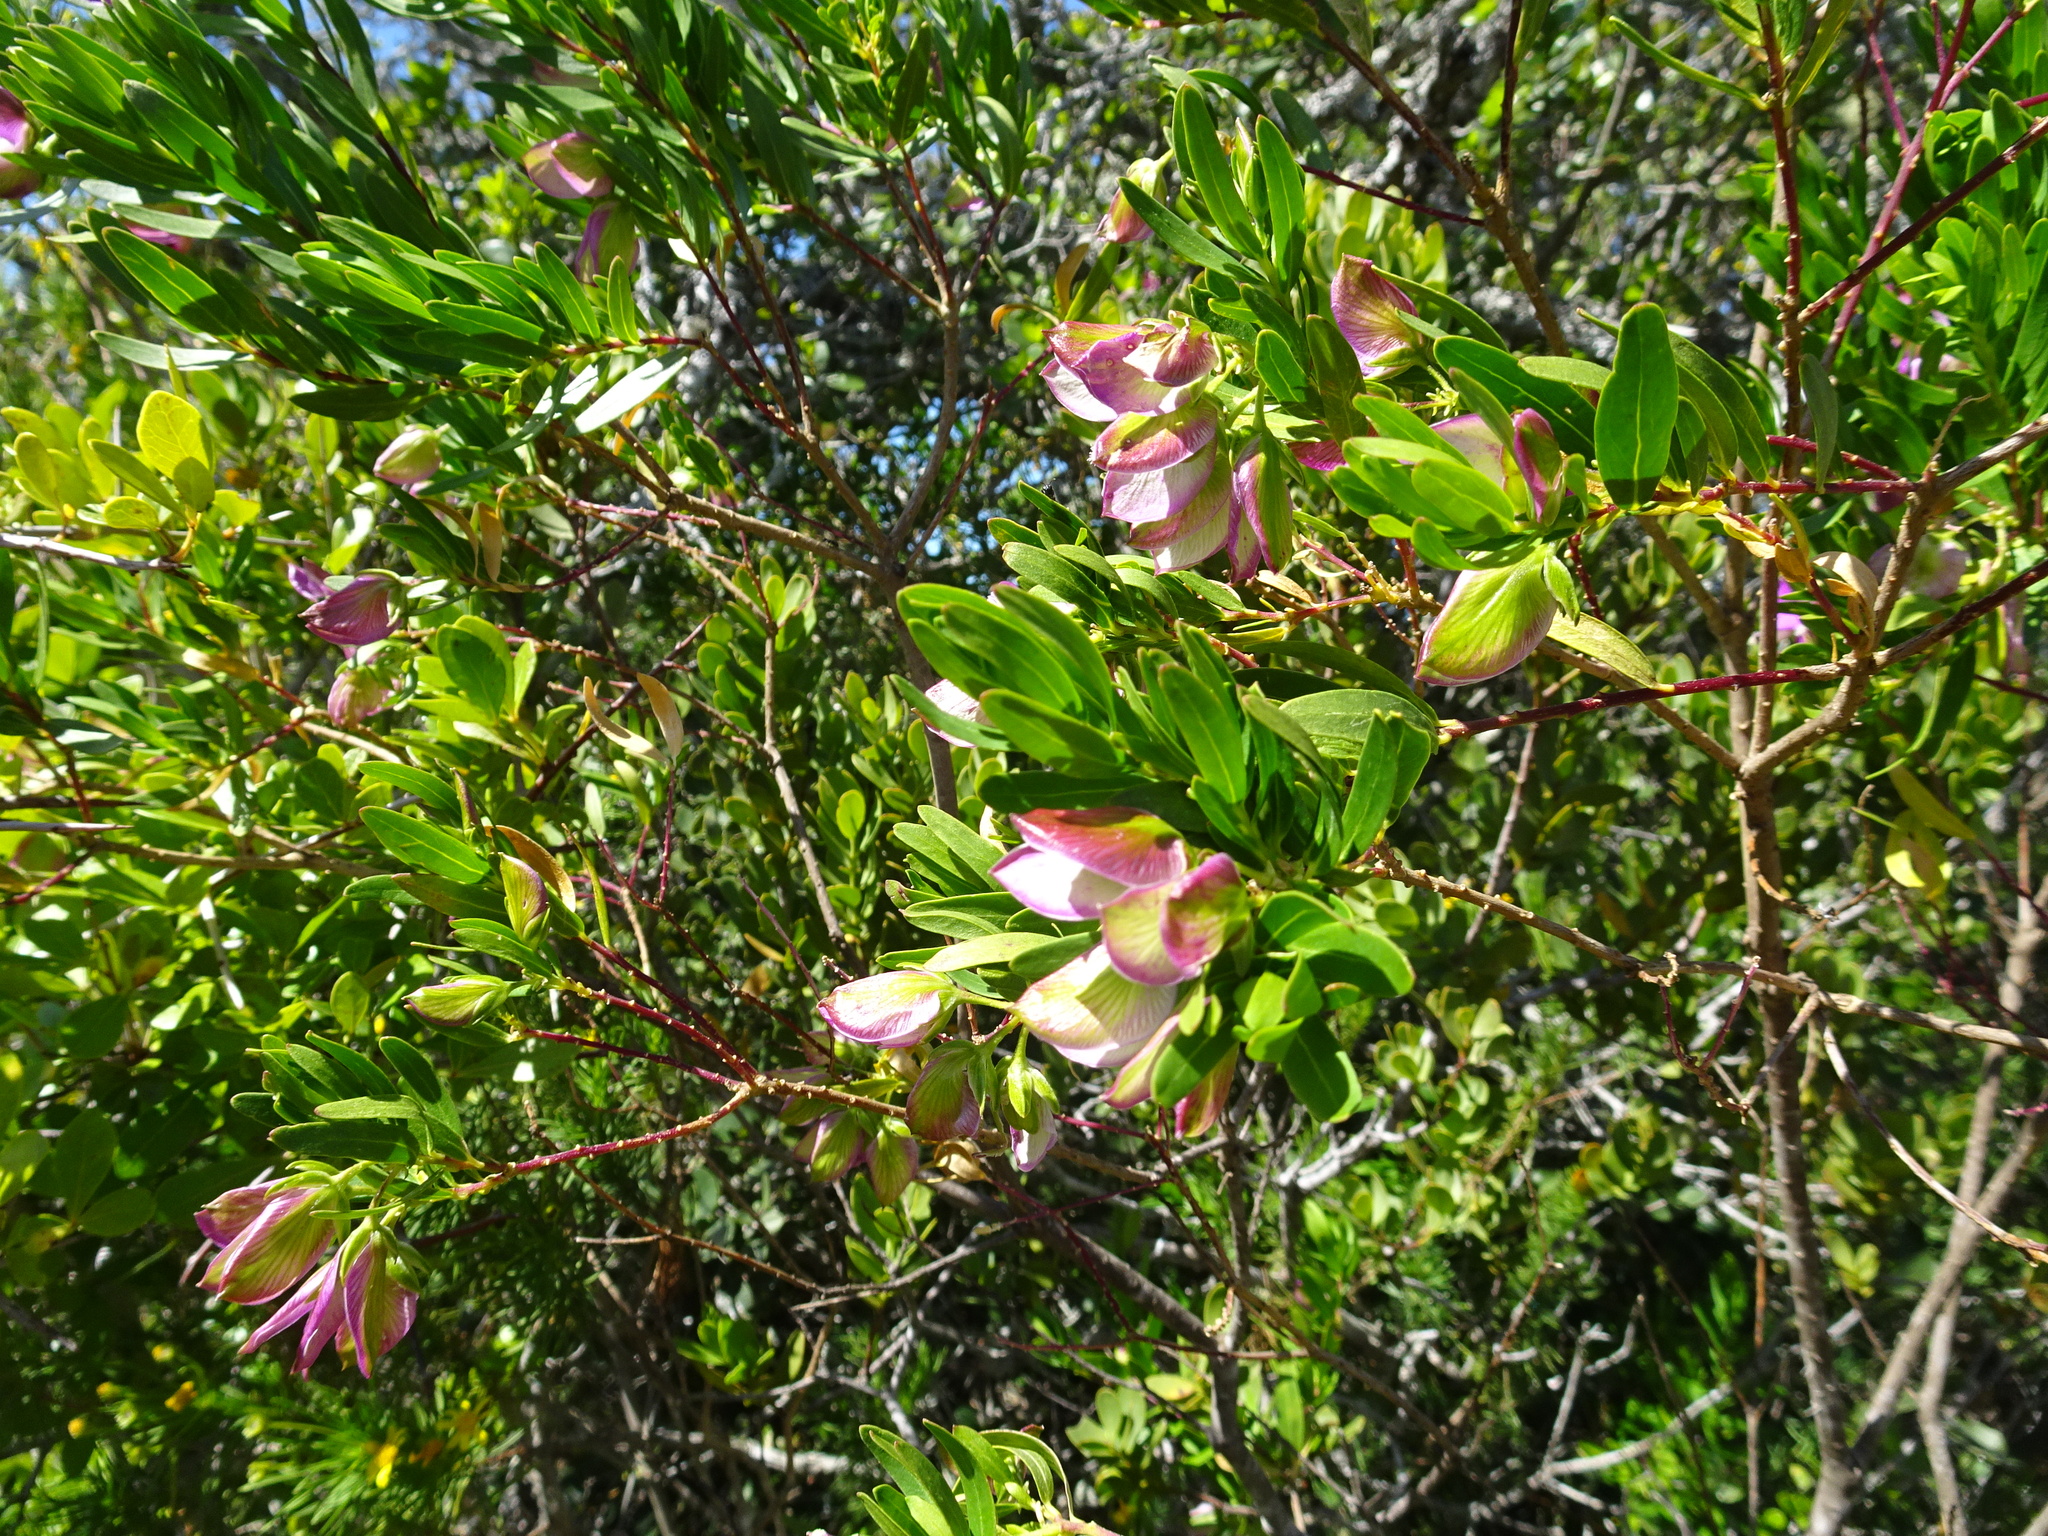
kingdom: Plantae
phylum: Tracheophyta
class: Magnoliopsida
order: Fabales
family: Polygalaceae
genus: Polygala
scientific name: Polygala myrtifolia
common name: Myrtle-leaf milkwort
